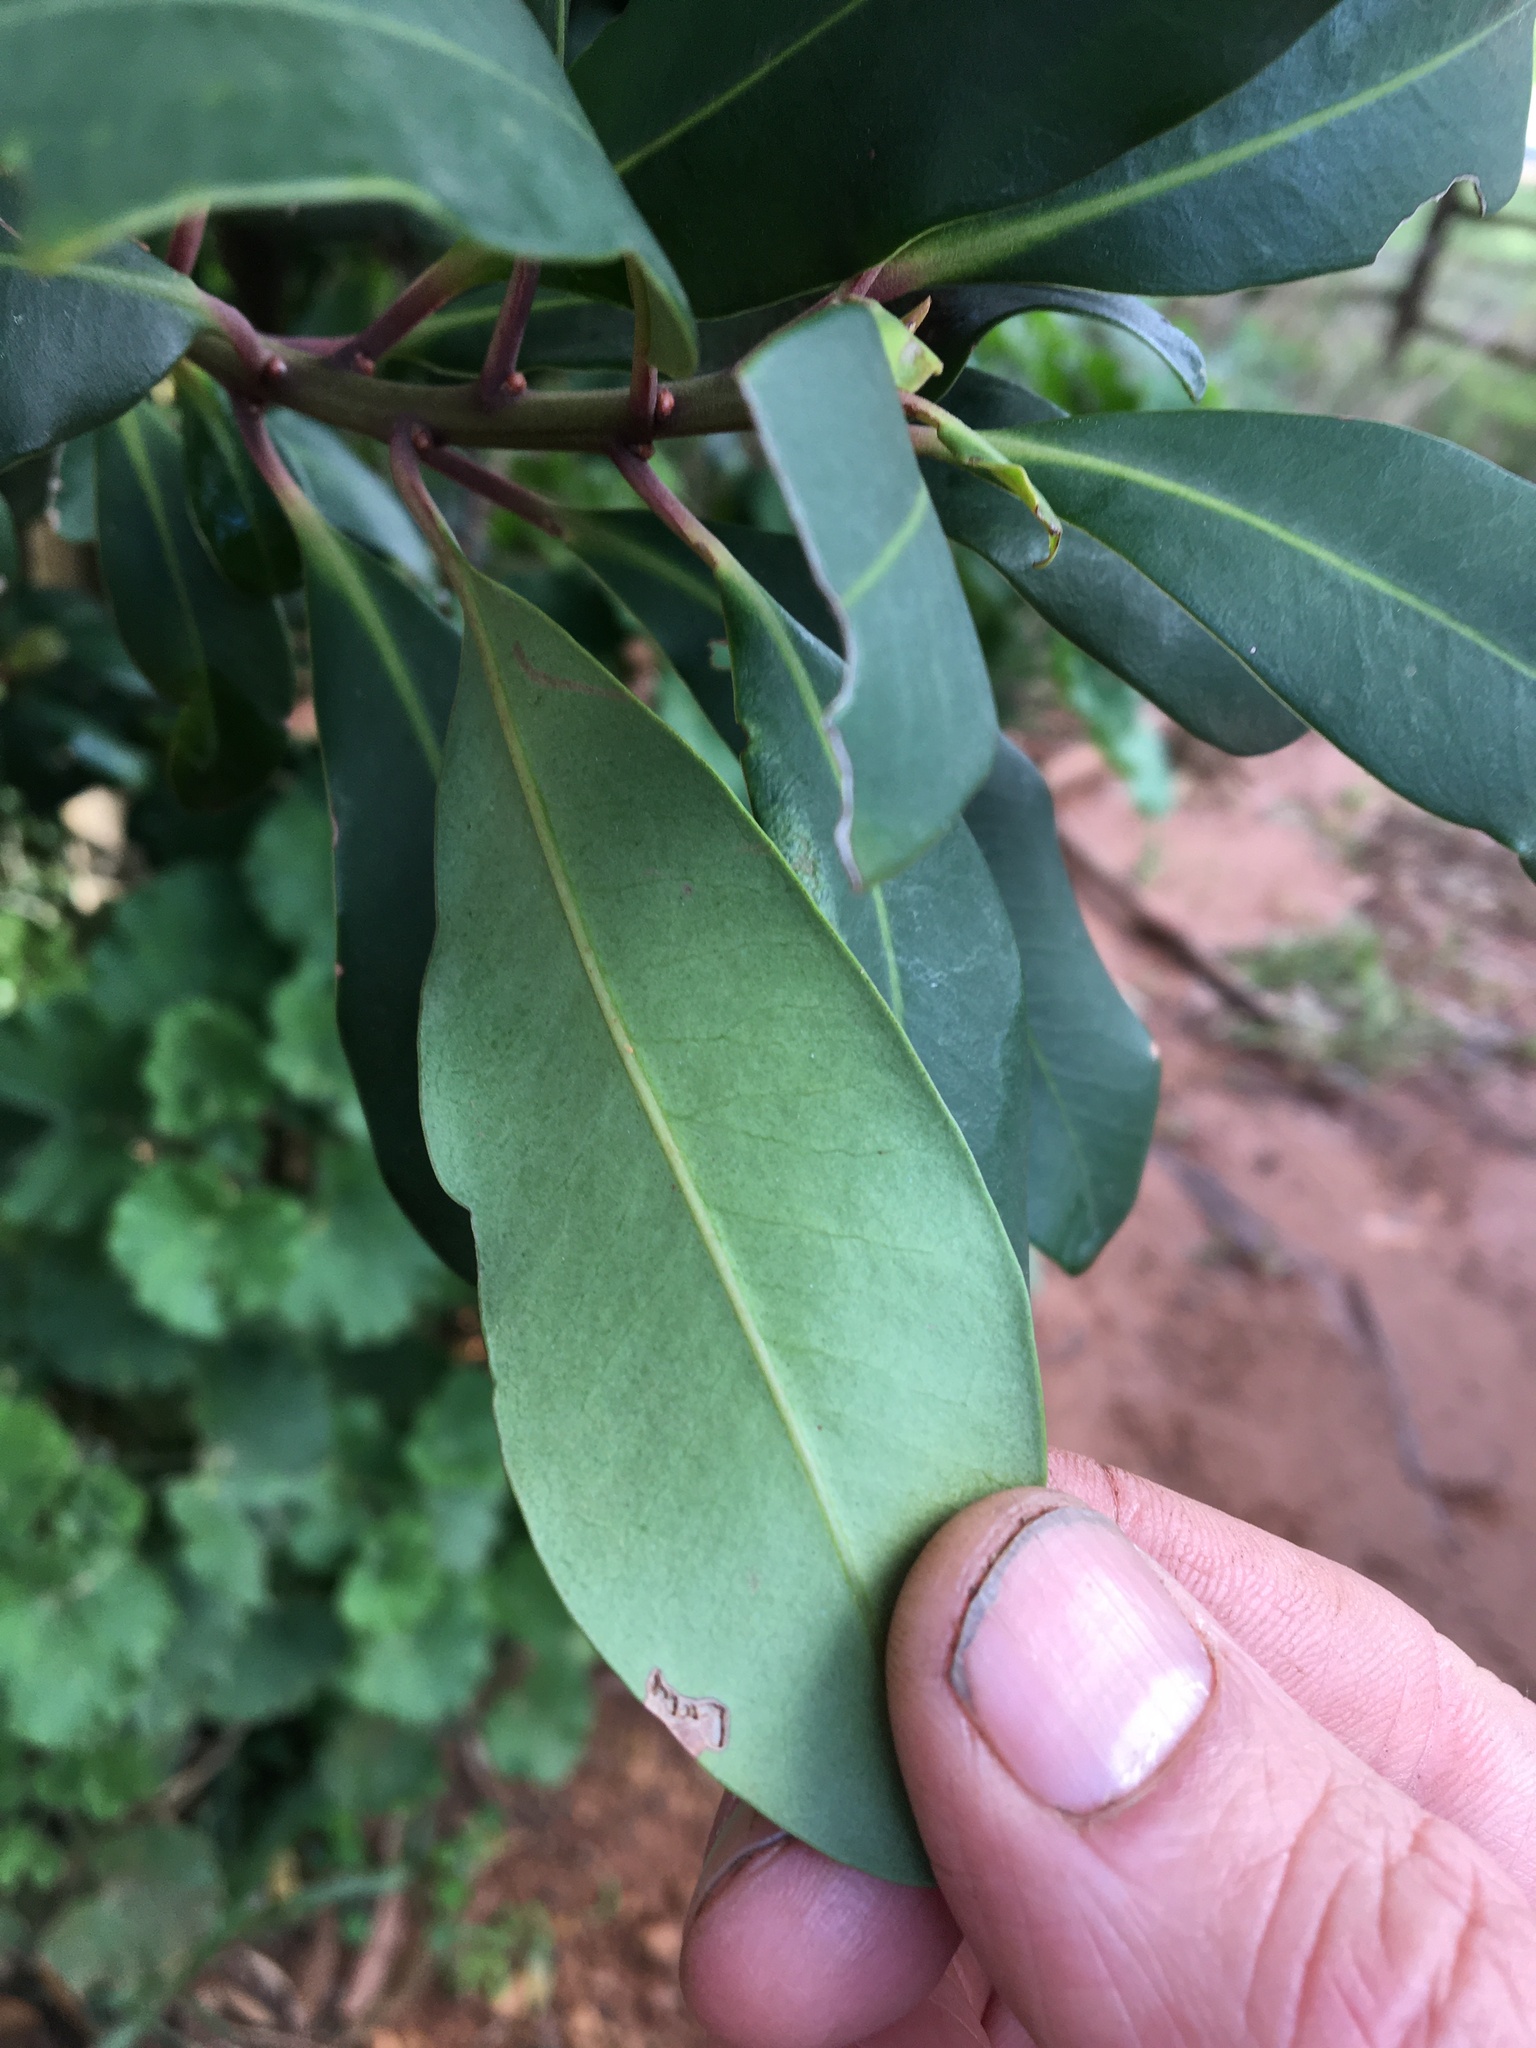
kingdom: Plantae
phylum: Tracheophyta
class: Magnoliopsida
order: Ericales
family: Primulaceae
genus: Myrsine
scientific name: Myrsine melanophloeos
